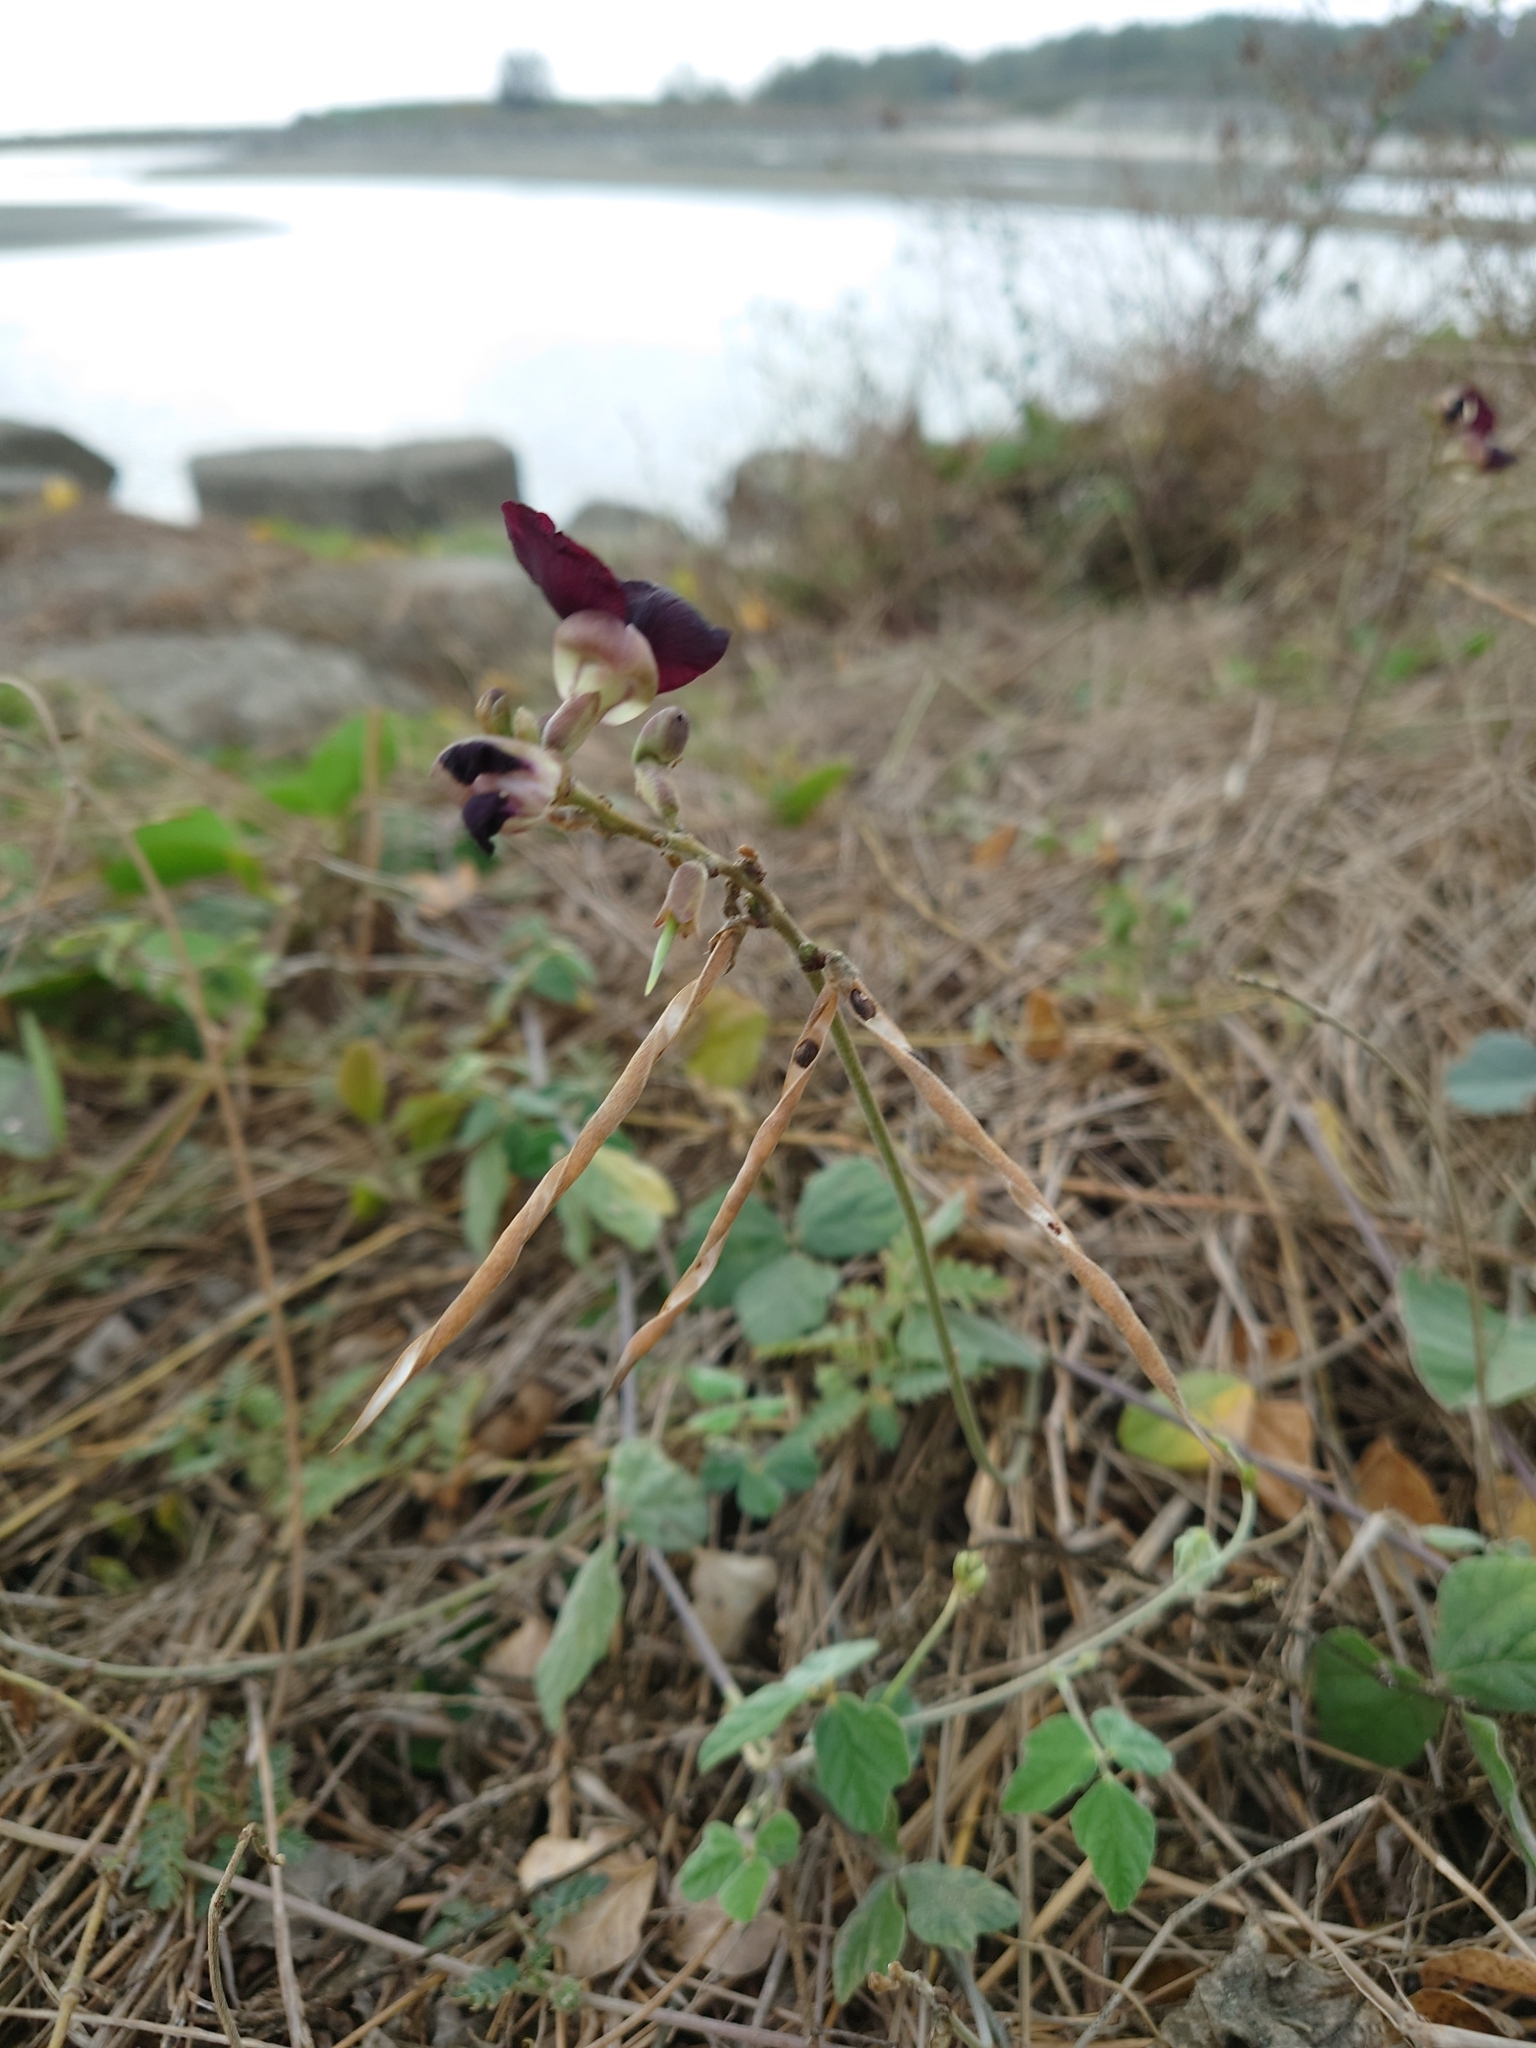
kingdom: Plantae
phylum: Tracheophyta
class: Magnoliopsida
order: Fabales
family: Fabaceae
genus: Macroptilium
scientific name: Macroptilium atropurpureum
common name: Purple bushbean
